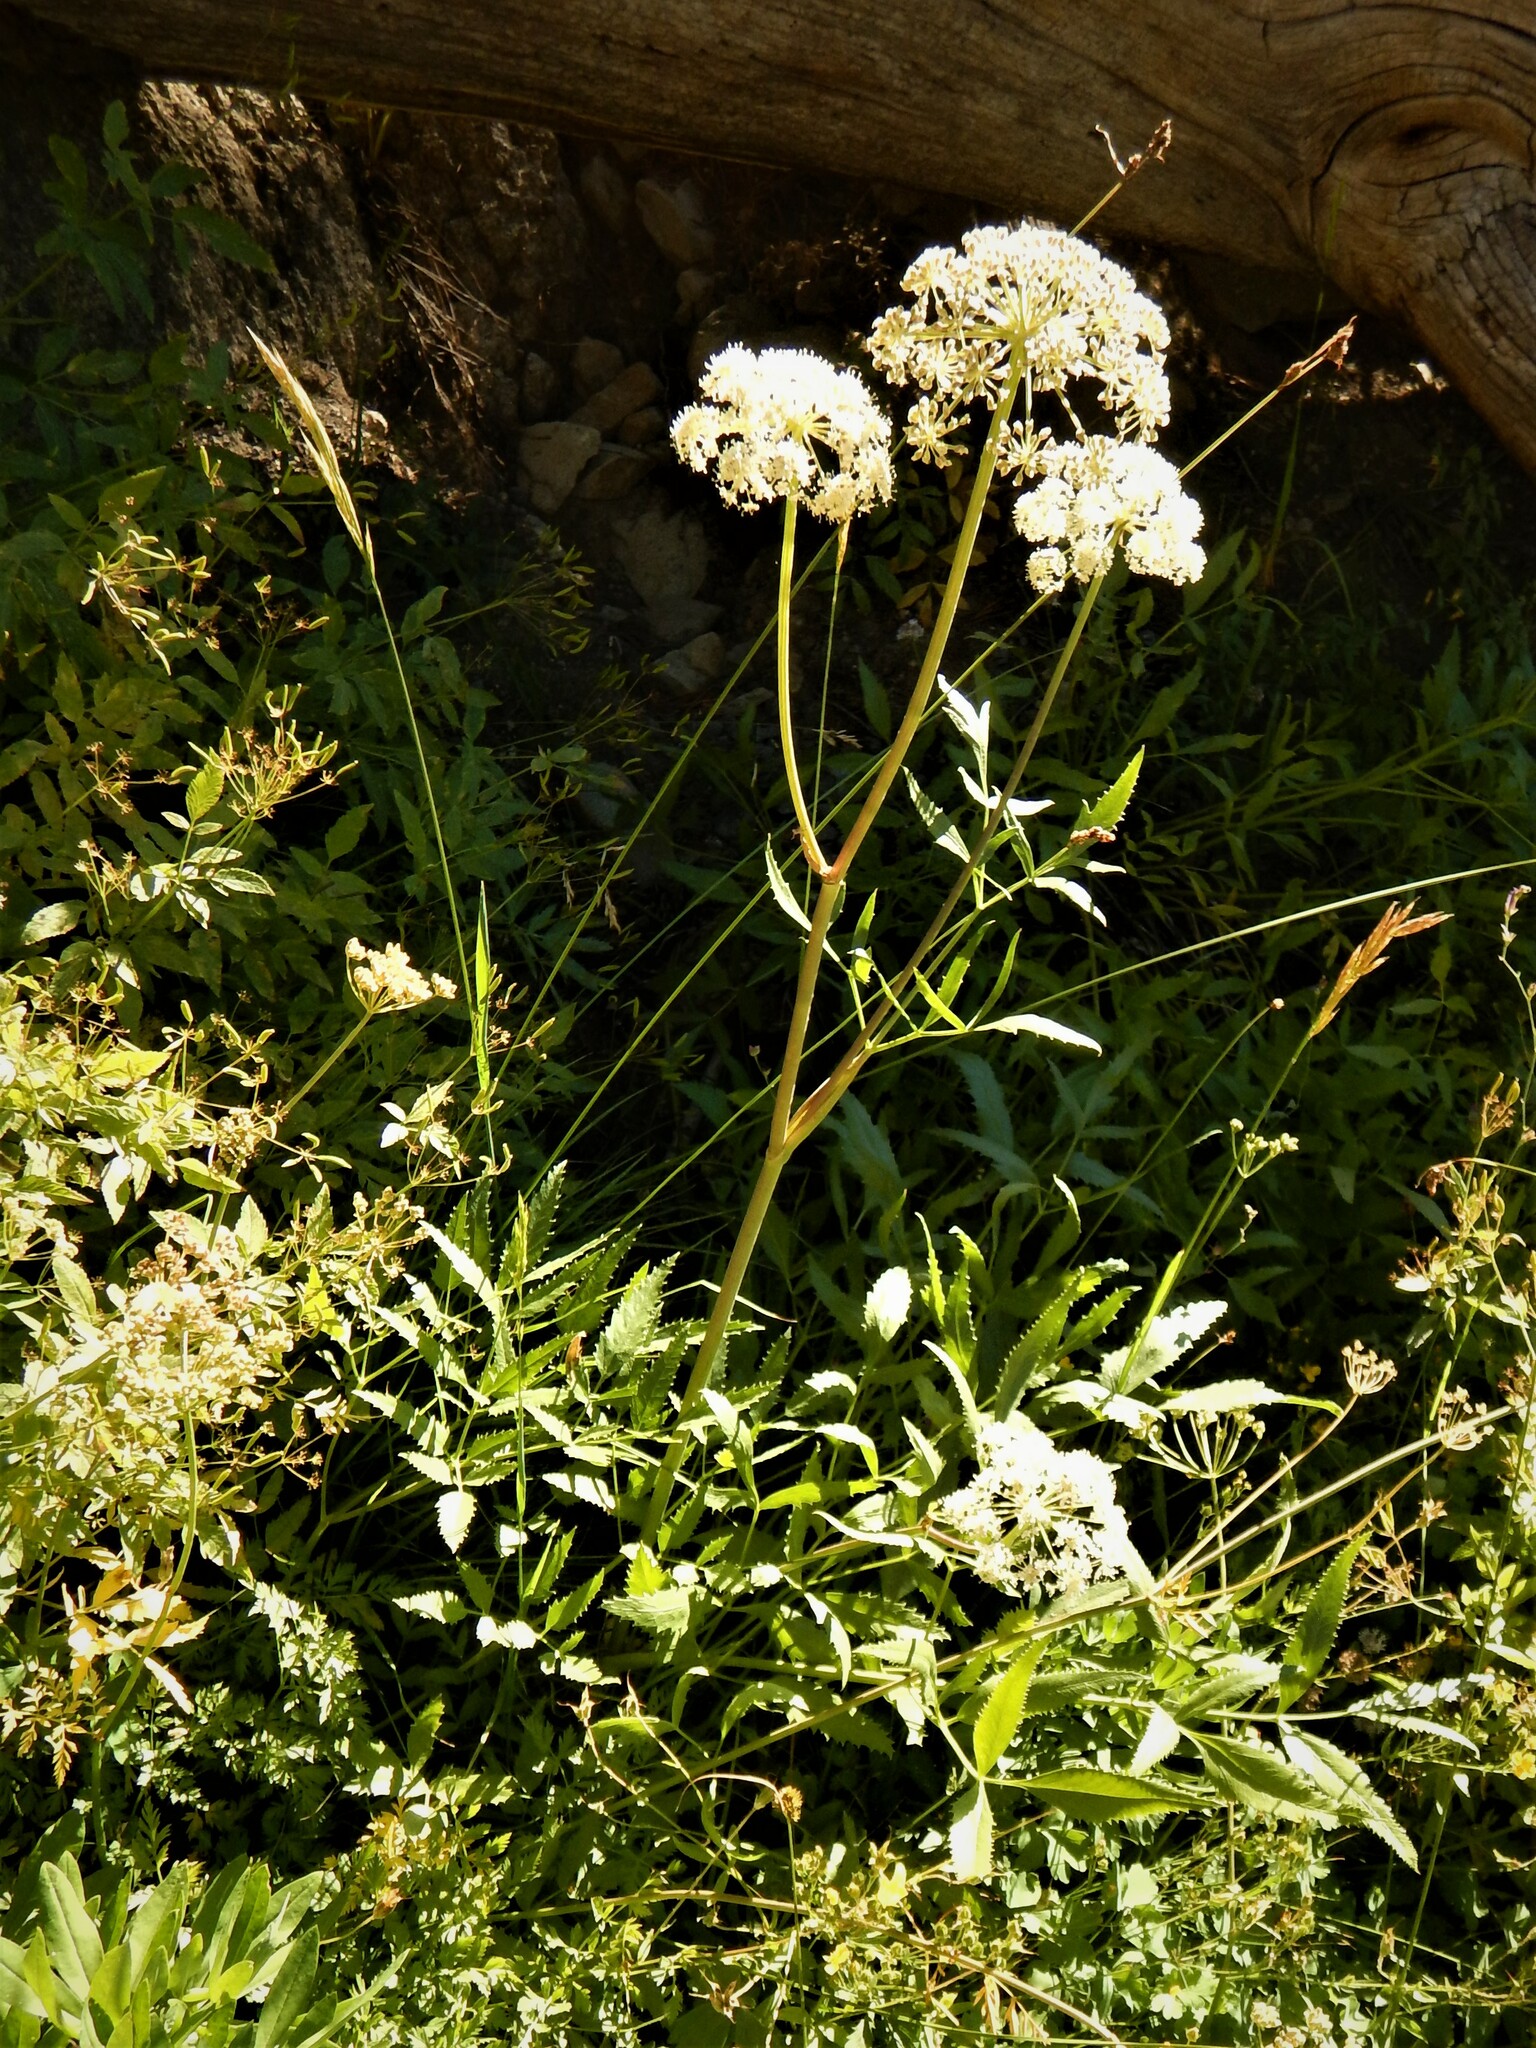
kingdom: Plantae
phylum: Tracheophyta
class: Magnoliopsida
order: Apiales
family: Apiaceae
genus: Angelica
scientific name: Angelica breweri
